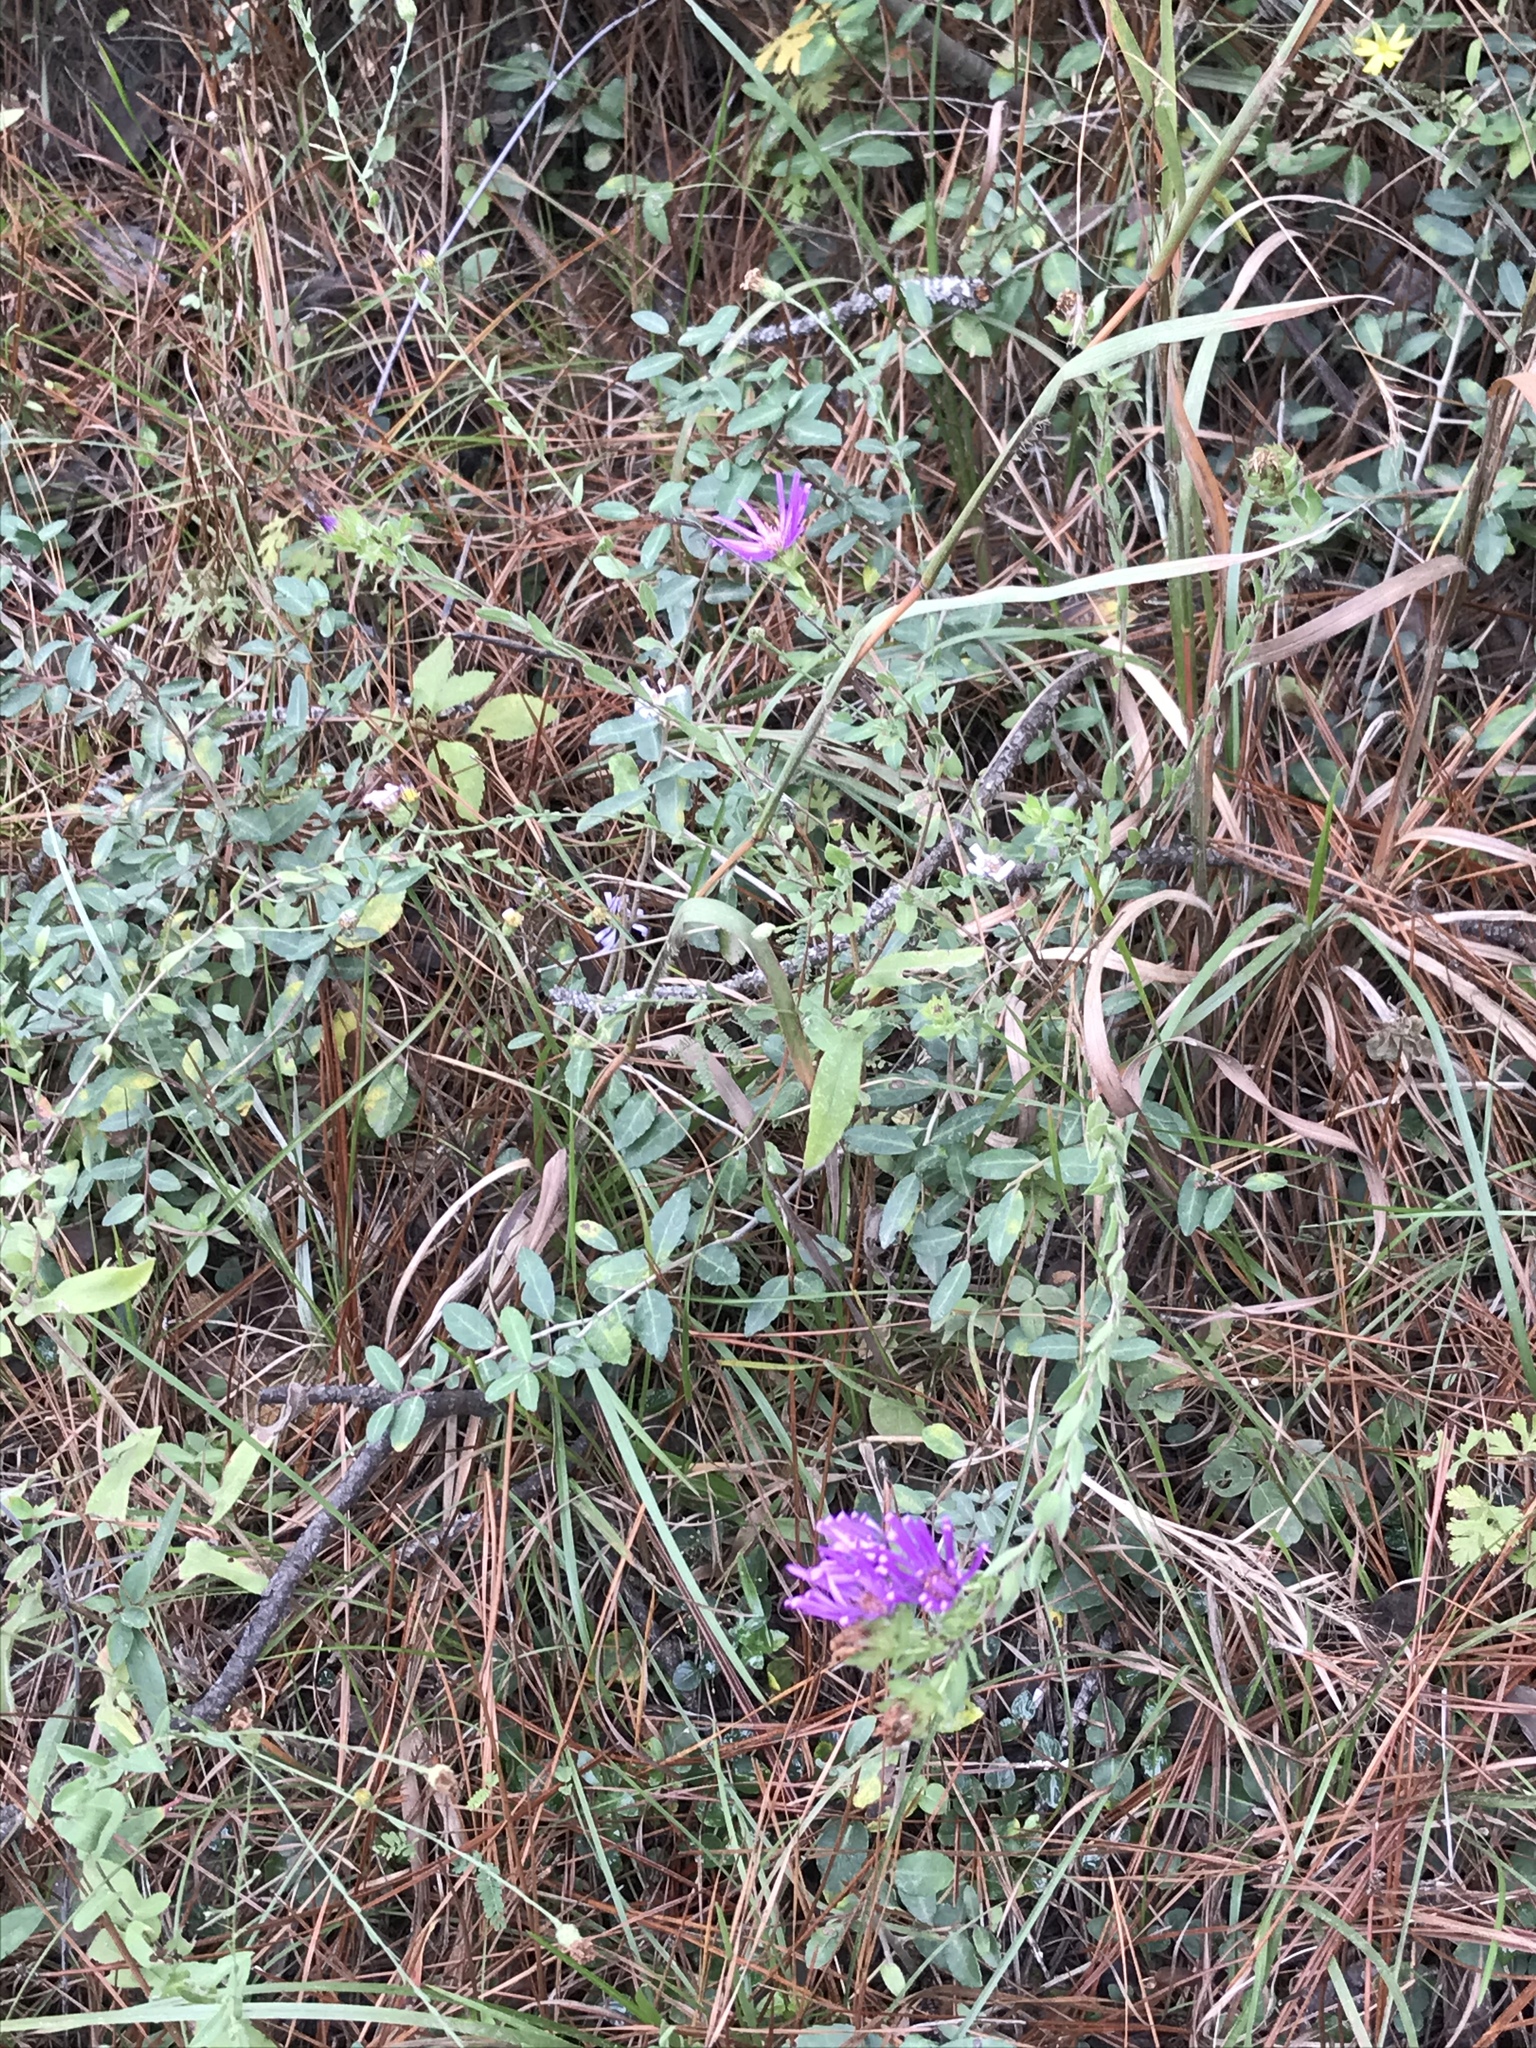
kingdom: Plantae
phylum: Tracheophyta
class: Magnoliopsida
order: Asterales
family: Asteraceae
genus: Symphyotrichum
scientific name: Symphyotrichum pratense
